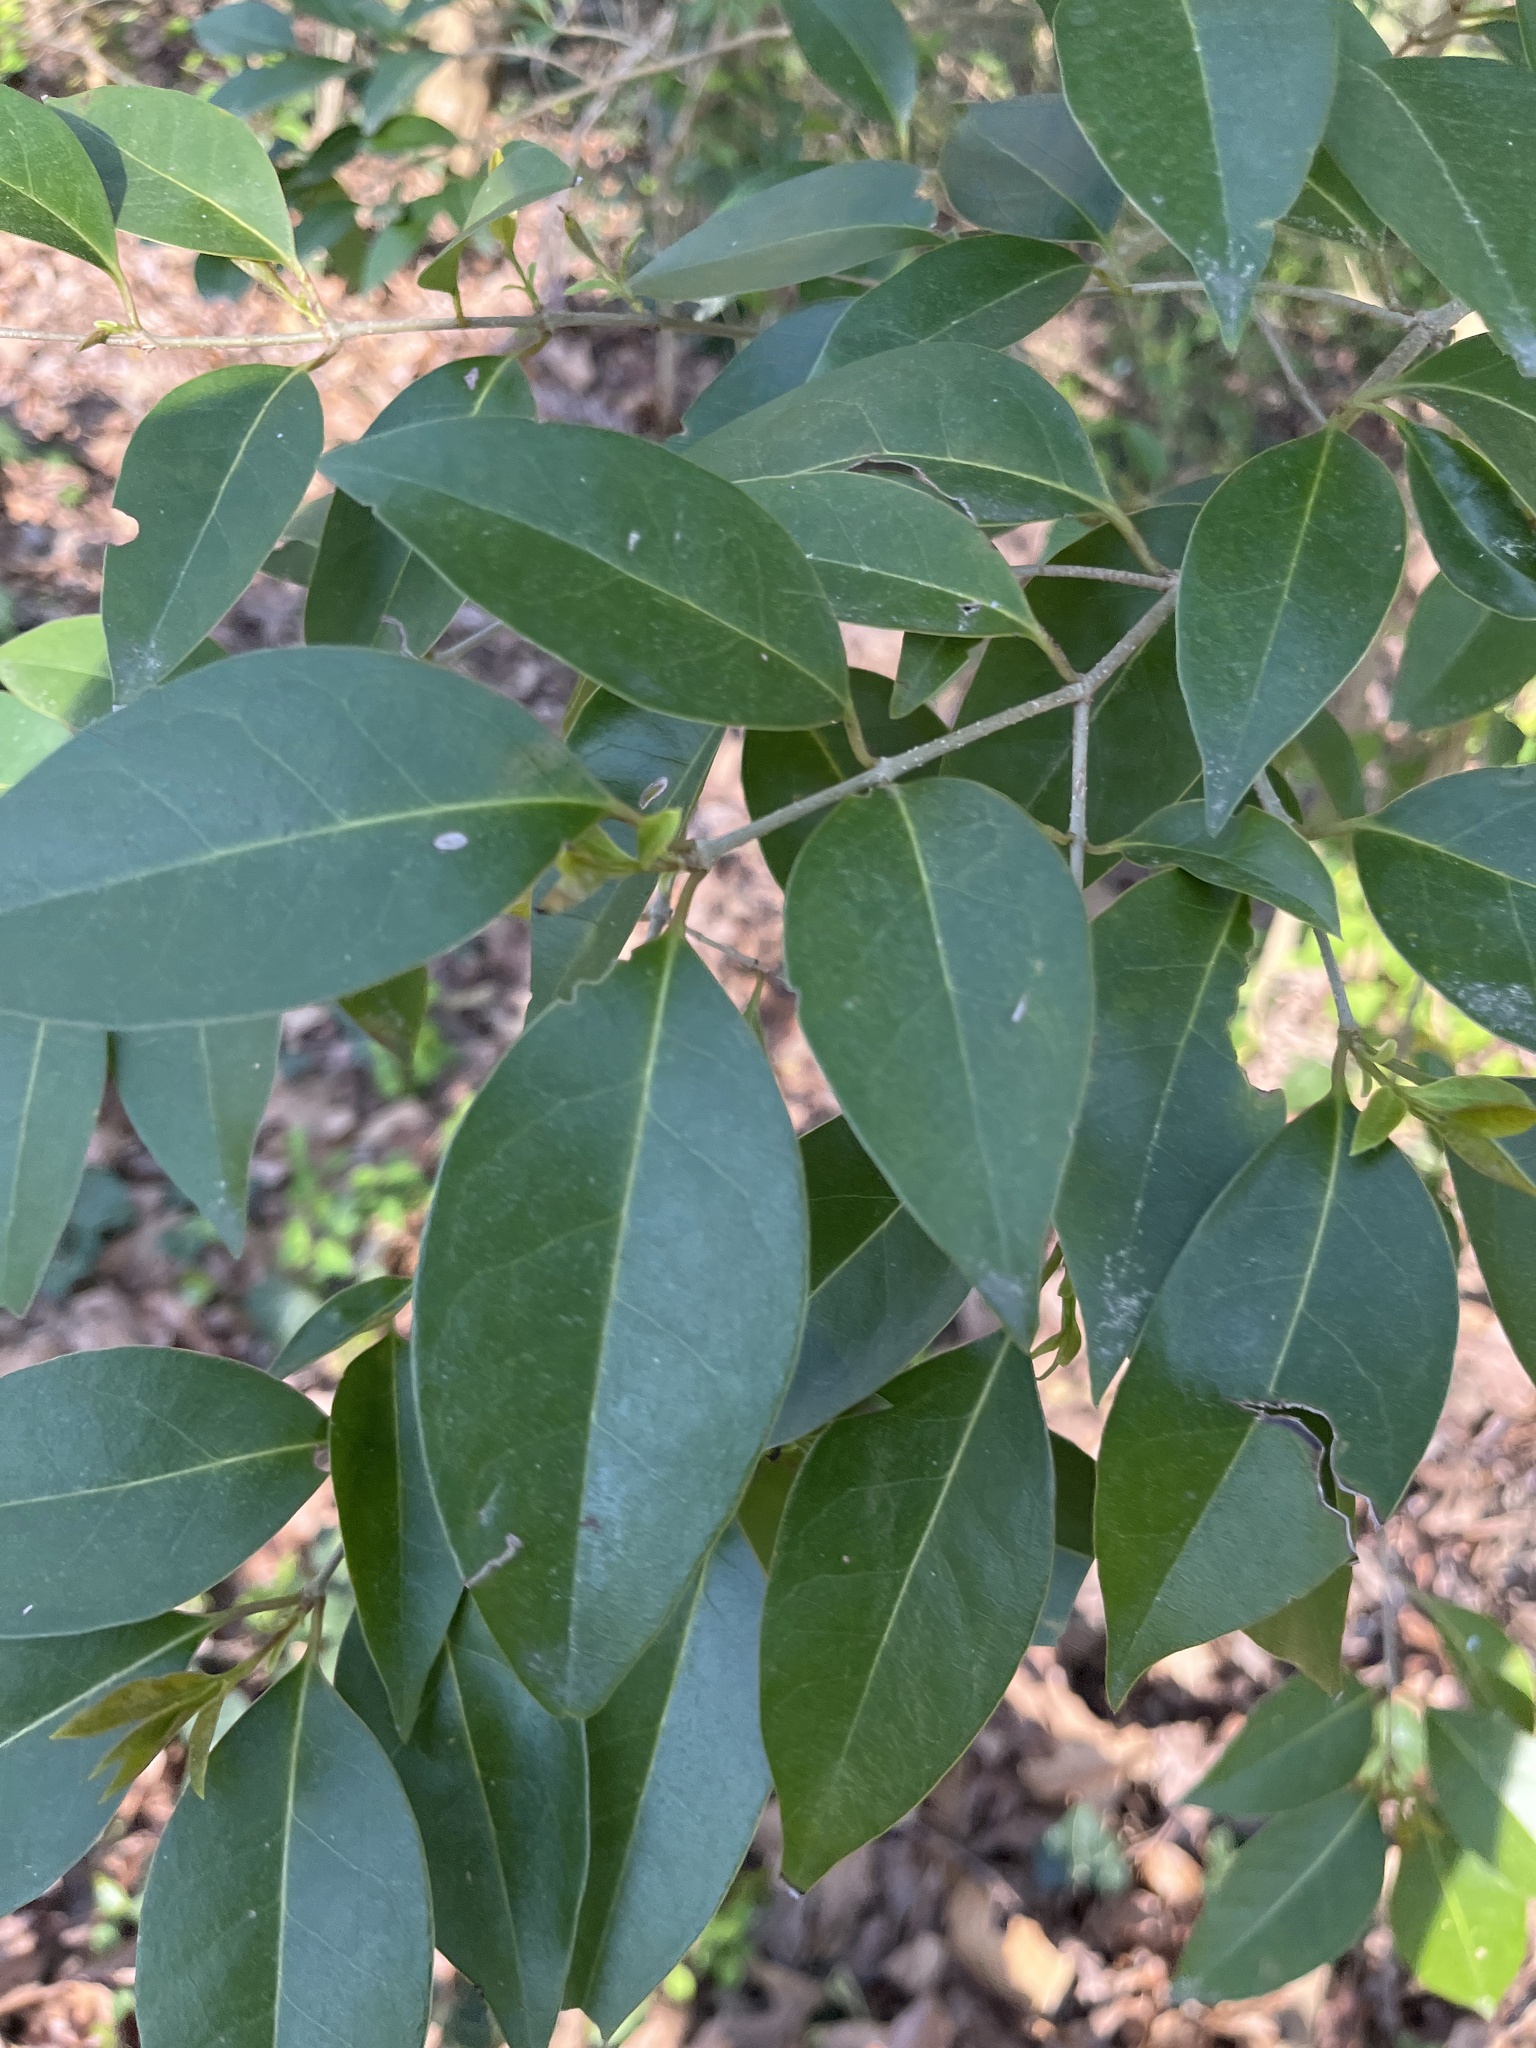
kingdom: Plantae
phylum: Tracheophyta
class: Magnoliopsida
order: Lamiales
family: Oleaceae
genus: Ligustrum
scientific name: Ligustrum lucidum
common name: Glossy privet
